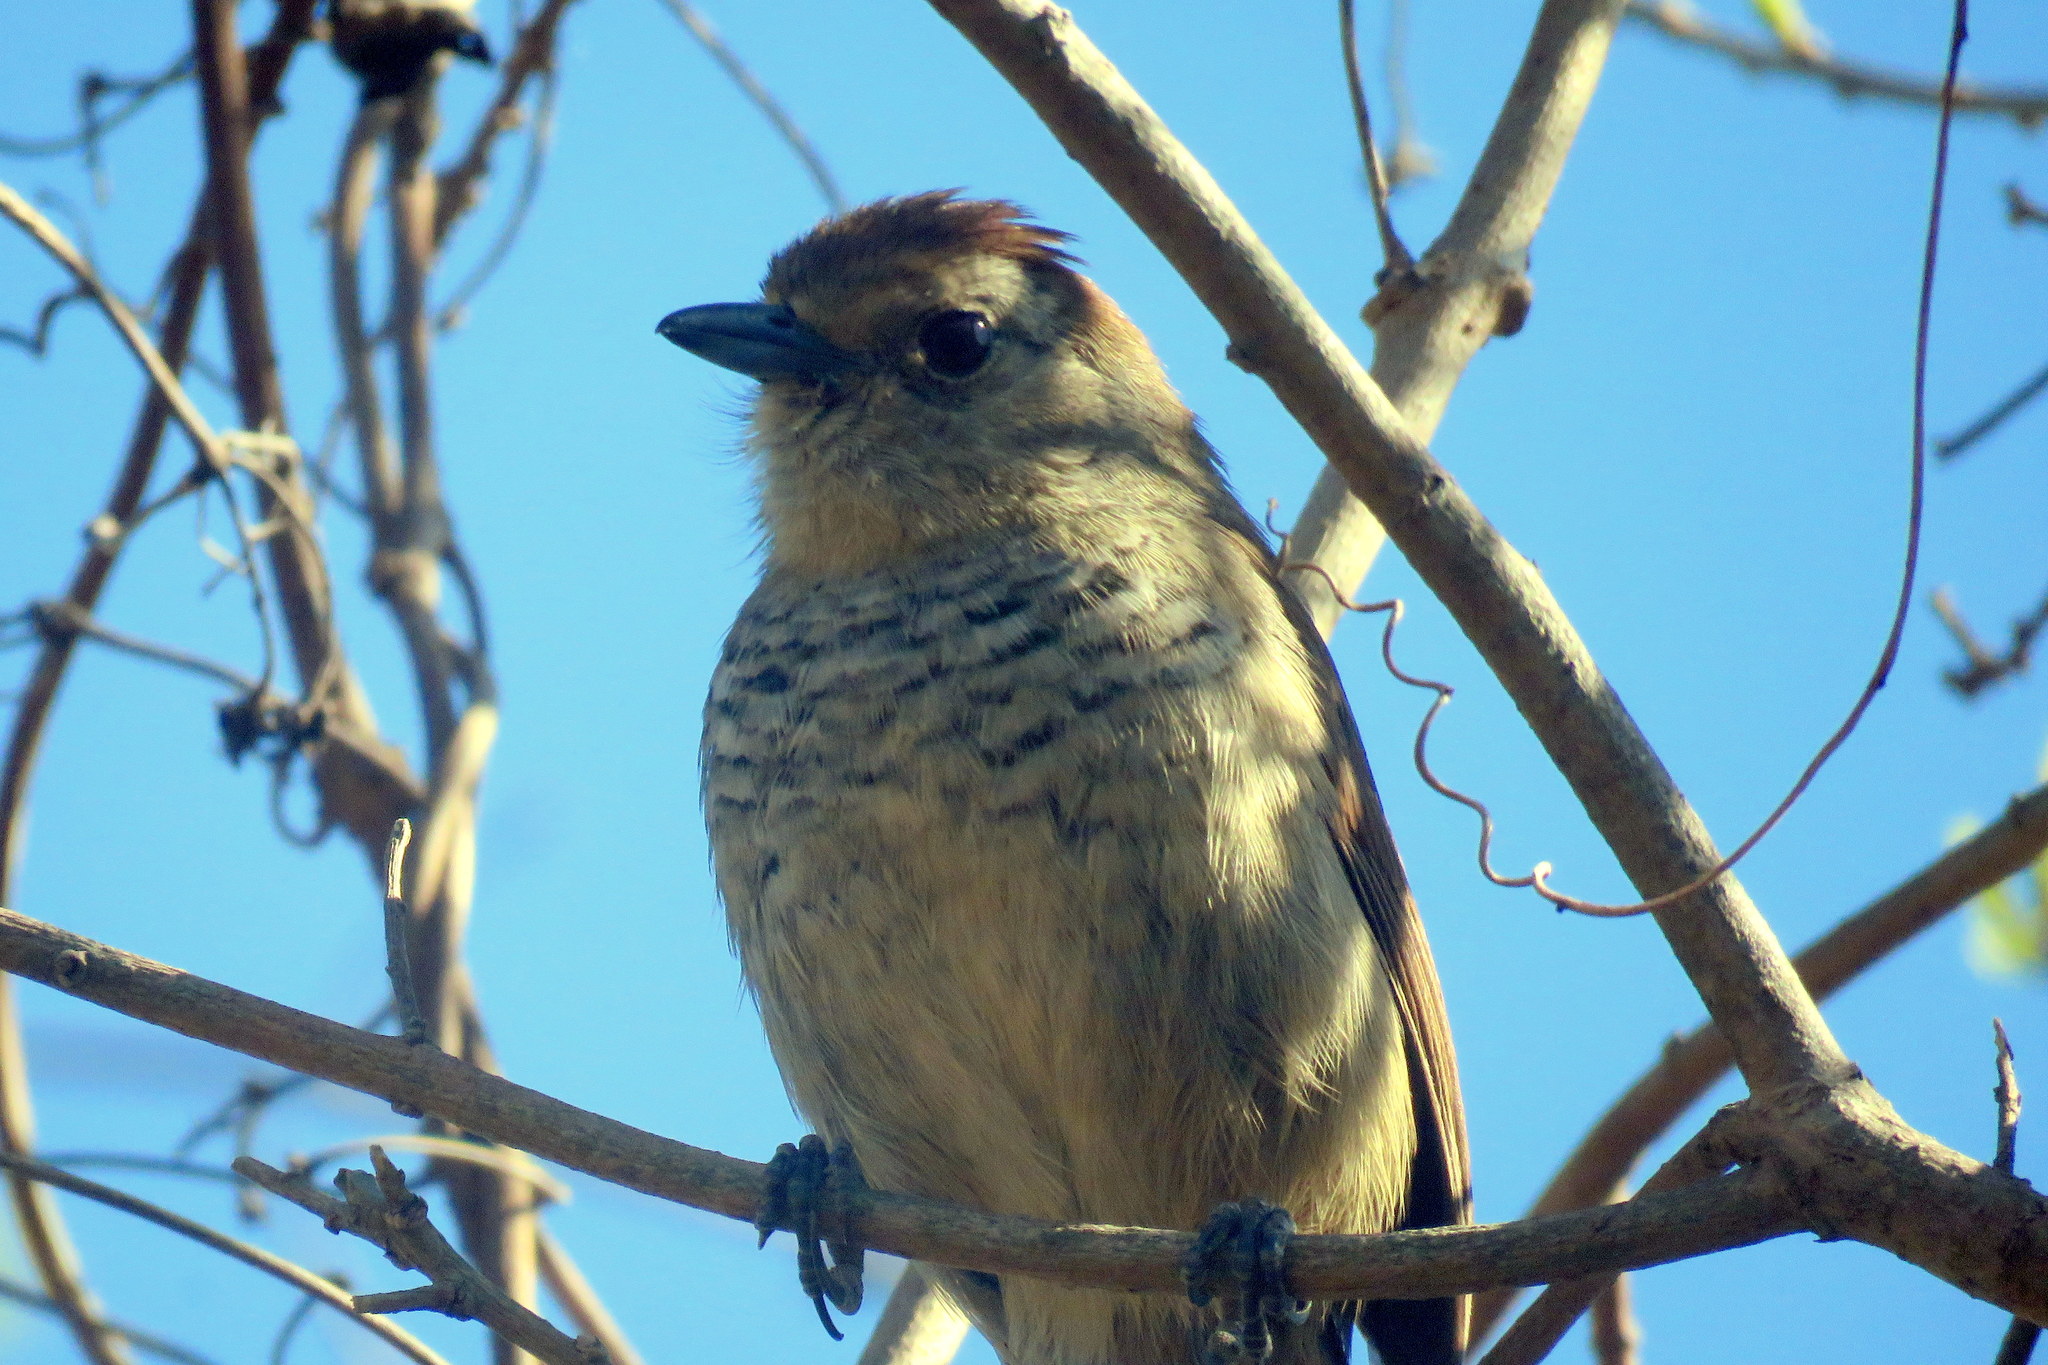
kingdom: Animalia
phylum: Chordata
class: Aves
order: Passeriformes
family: Thamnophilidae
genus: Thamnophilus
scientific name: Thamnophilus ruficapillus
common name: Rufous-capped antshrike
